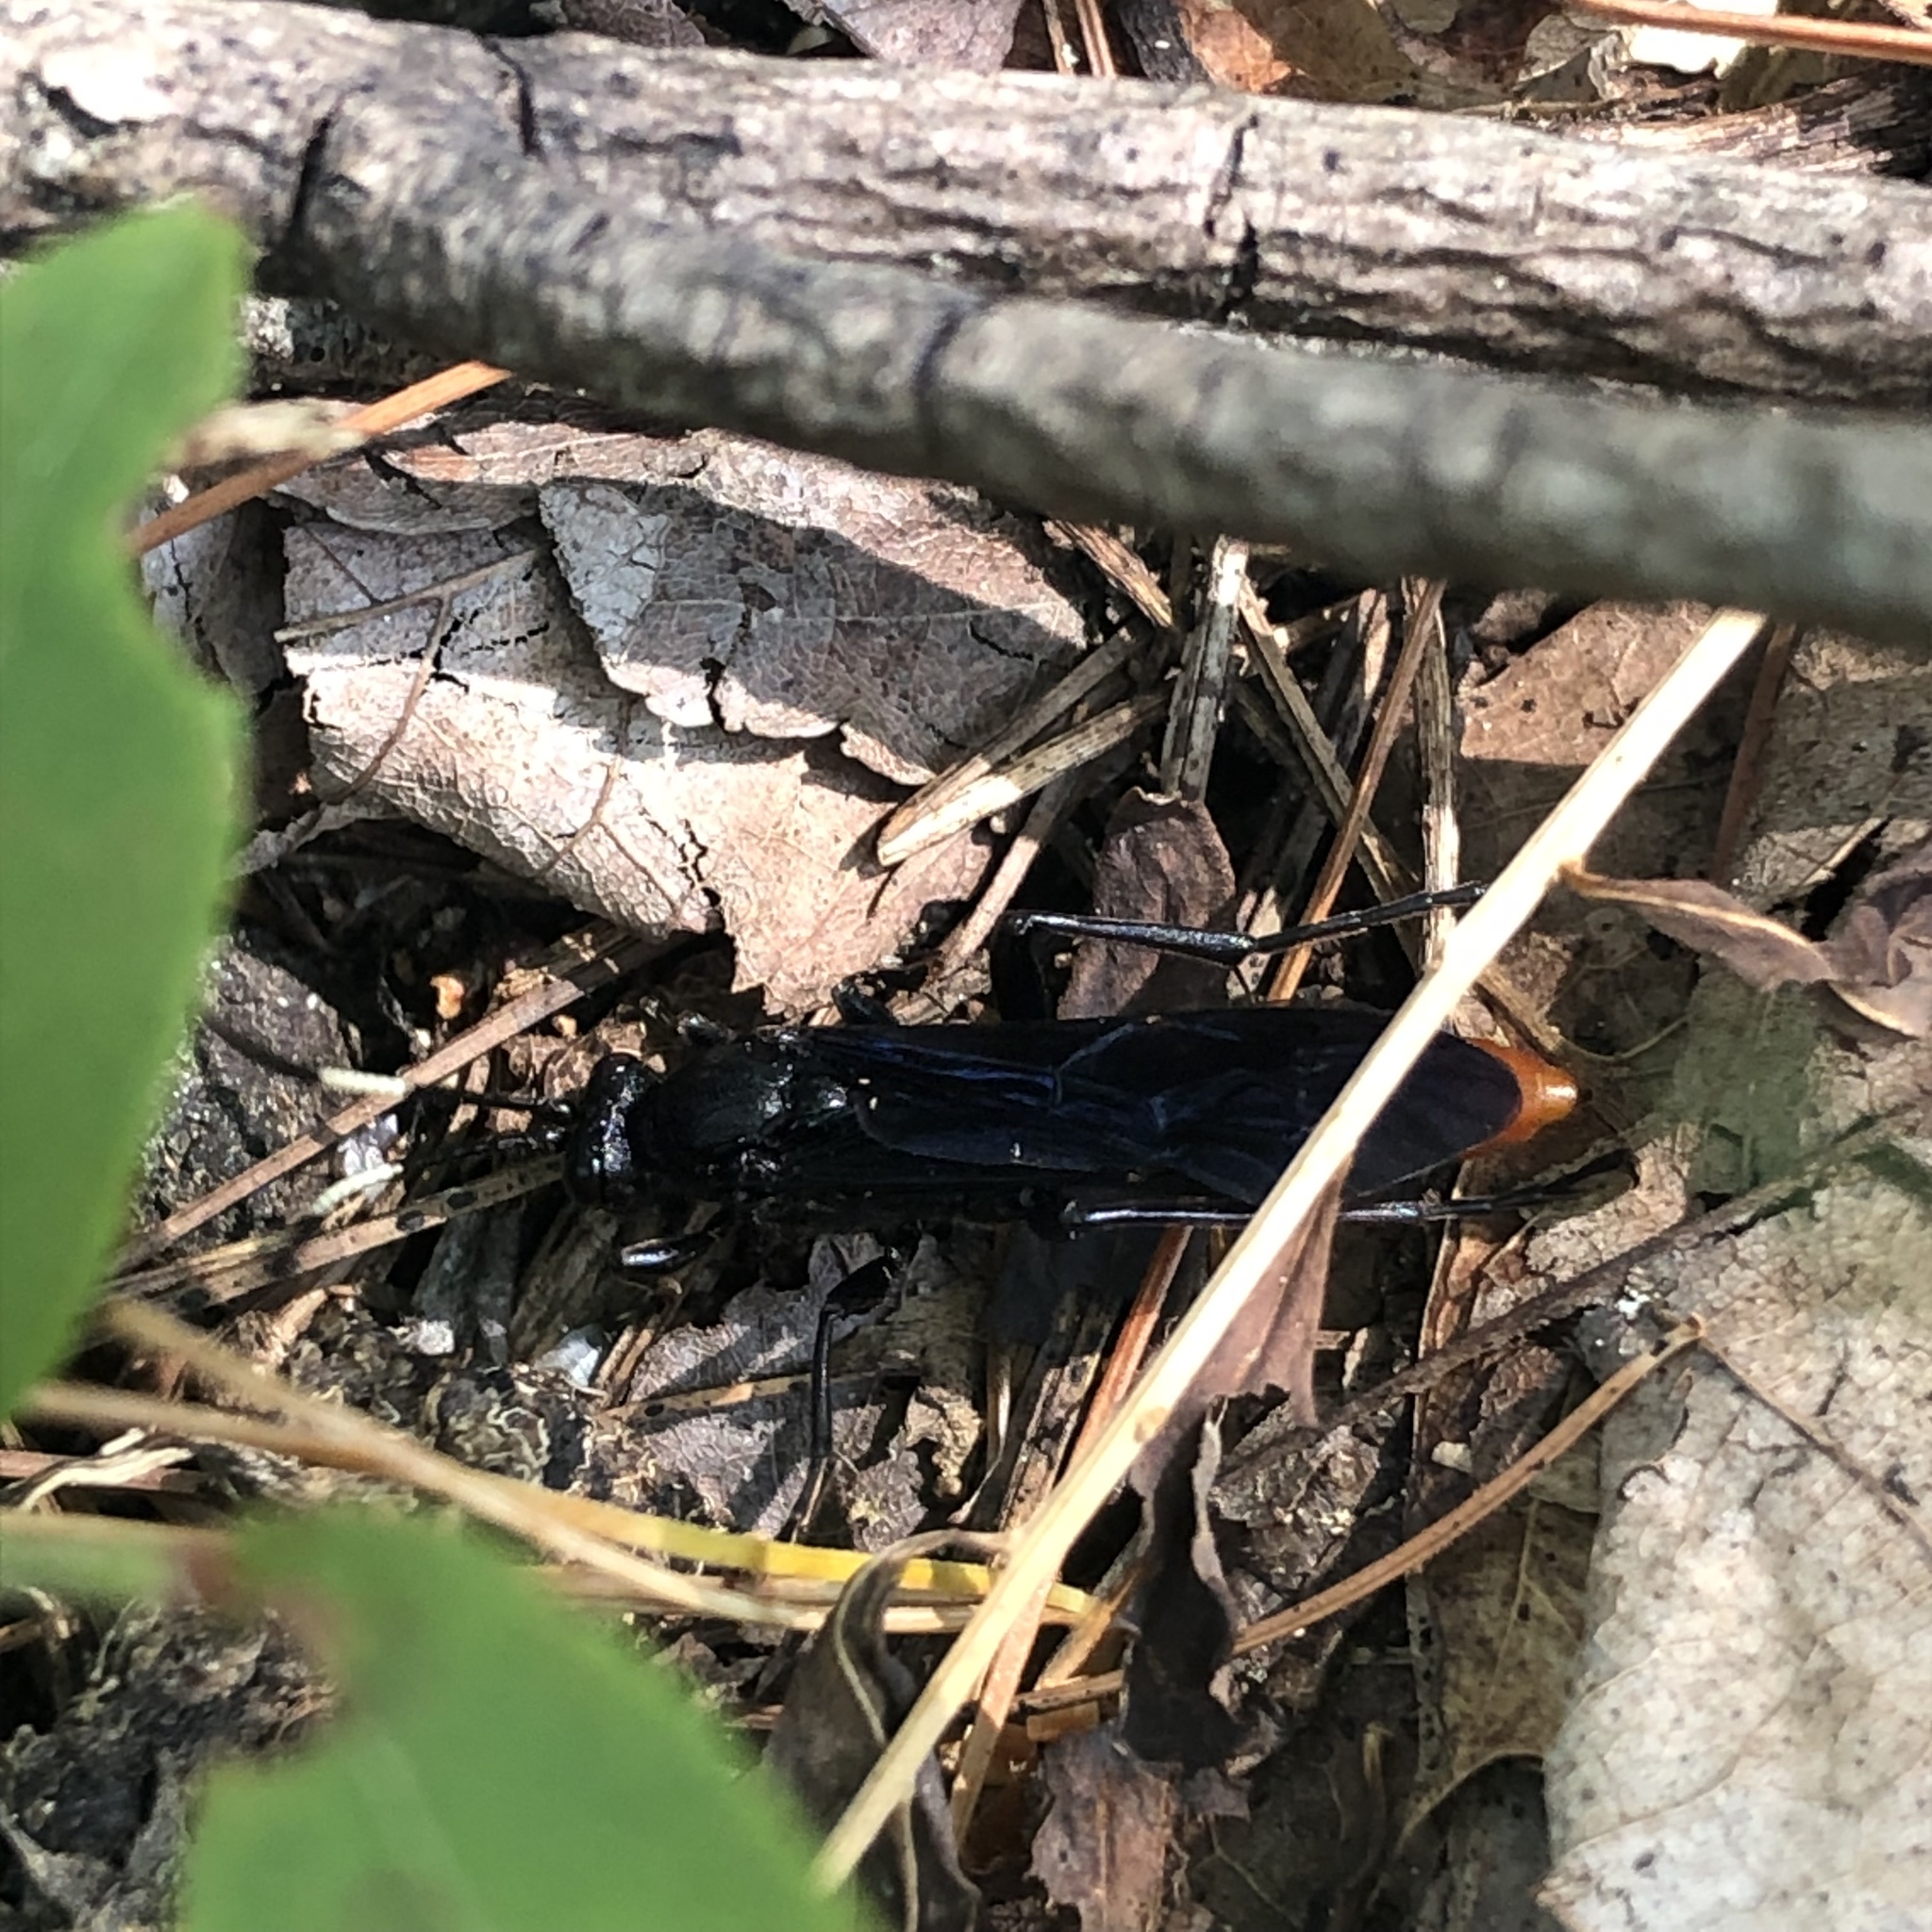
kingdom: Animalia
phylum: Arthropoda
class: Insecta
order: Hymenoptera
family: Ichneumonidae
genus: Protichneumon
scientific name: Protichneumon grandis
